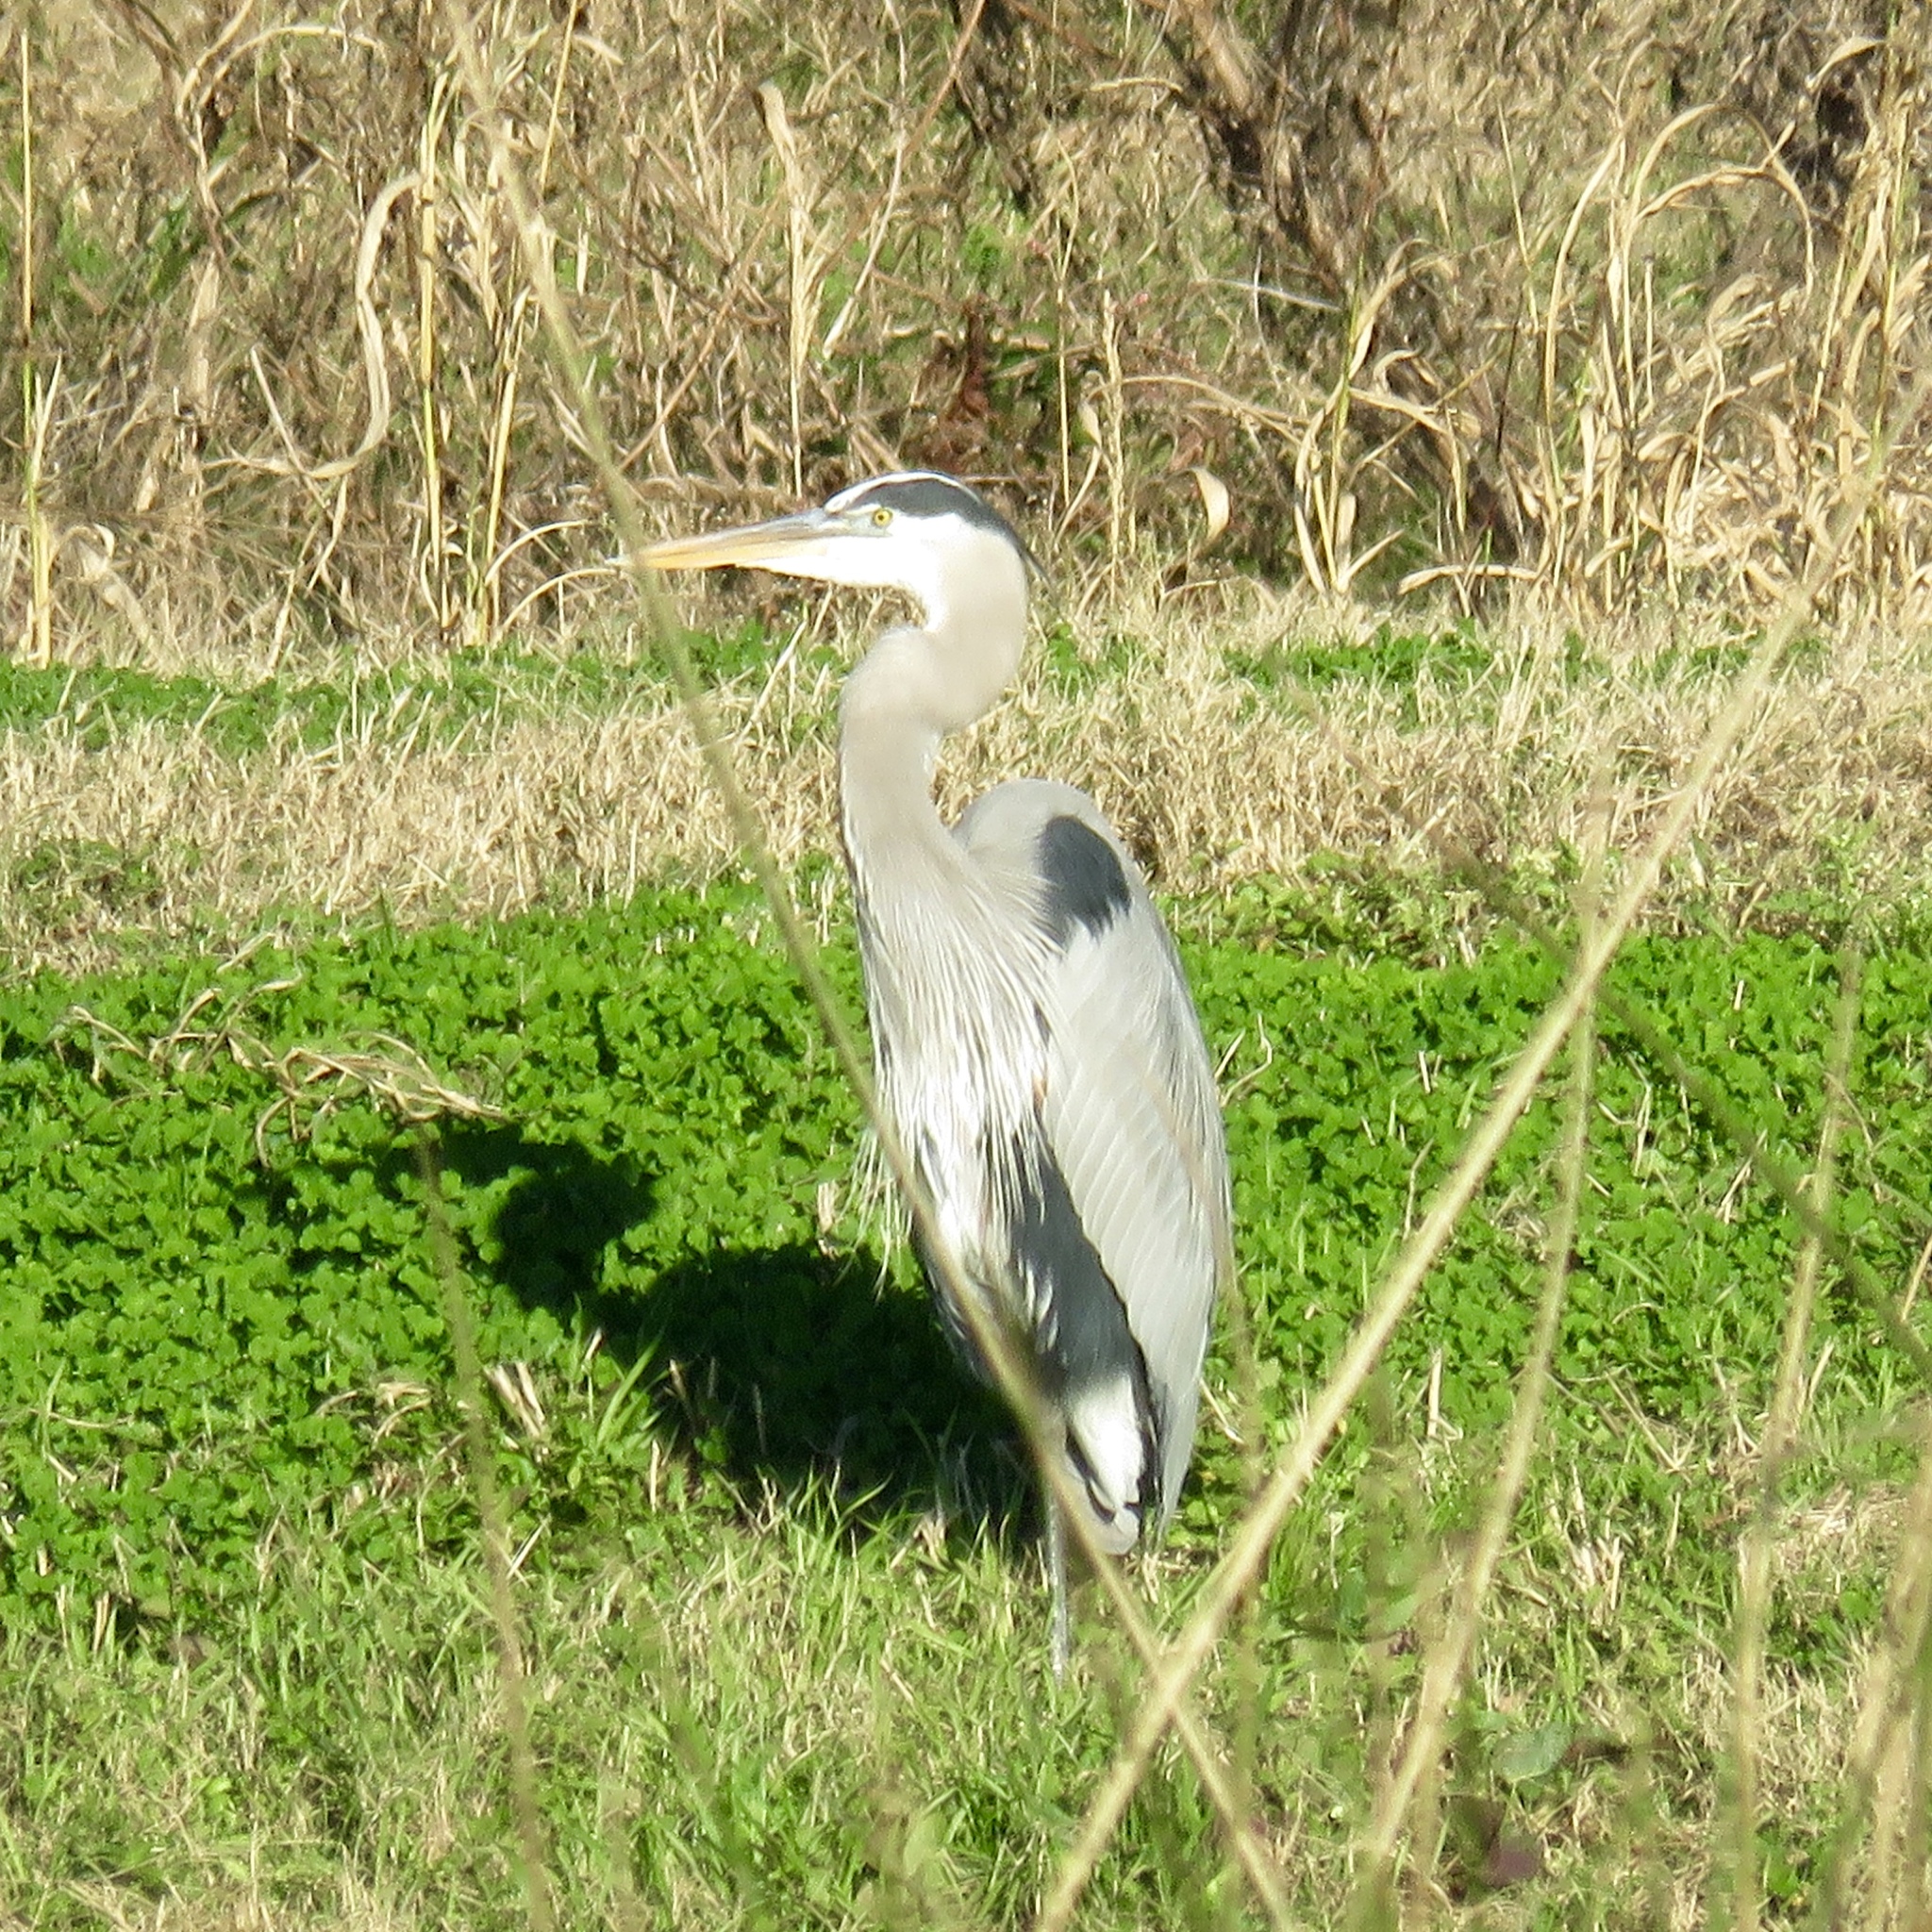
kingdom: Animalia
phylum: Chordata
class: Aves
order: Pelecaniformes
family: Ardeidae
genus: Ardea
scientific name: Ardea herodias
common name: Great blue heron
